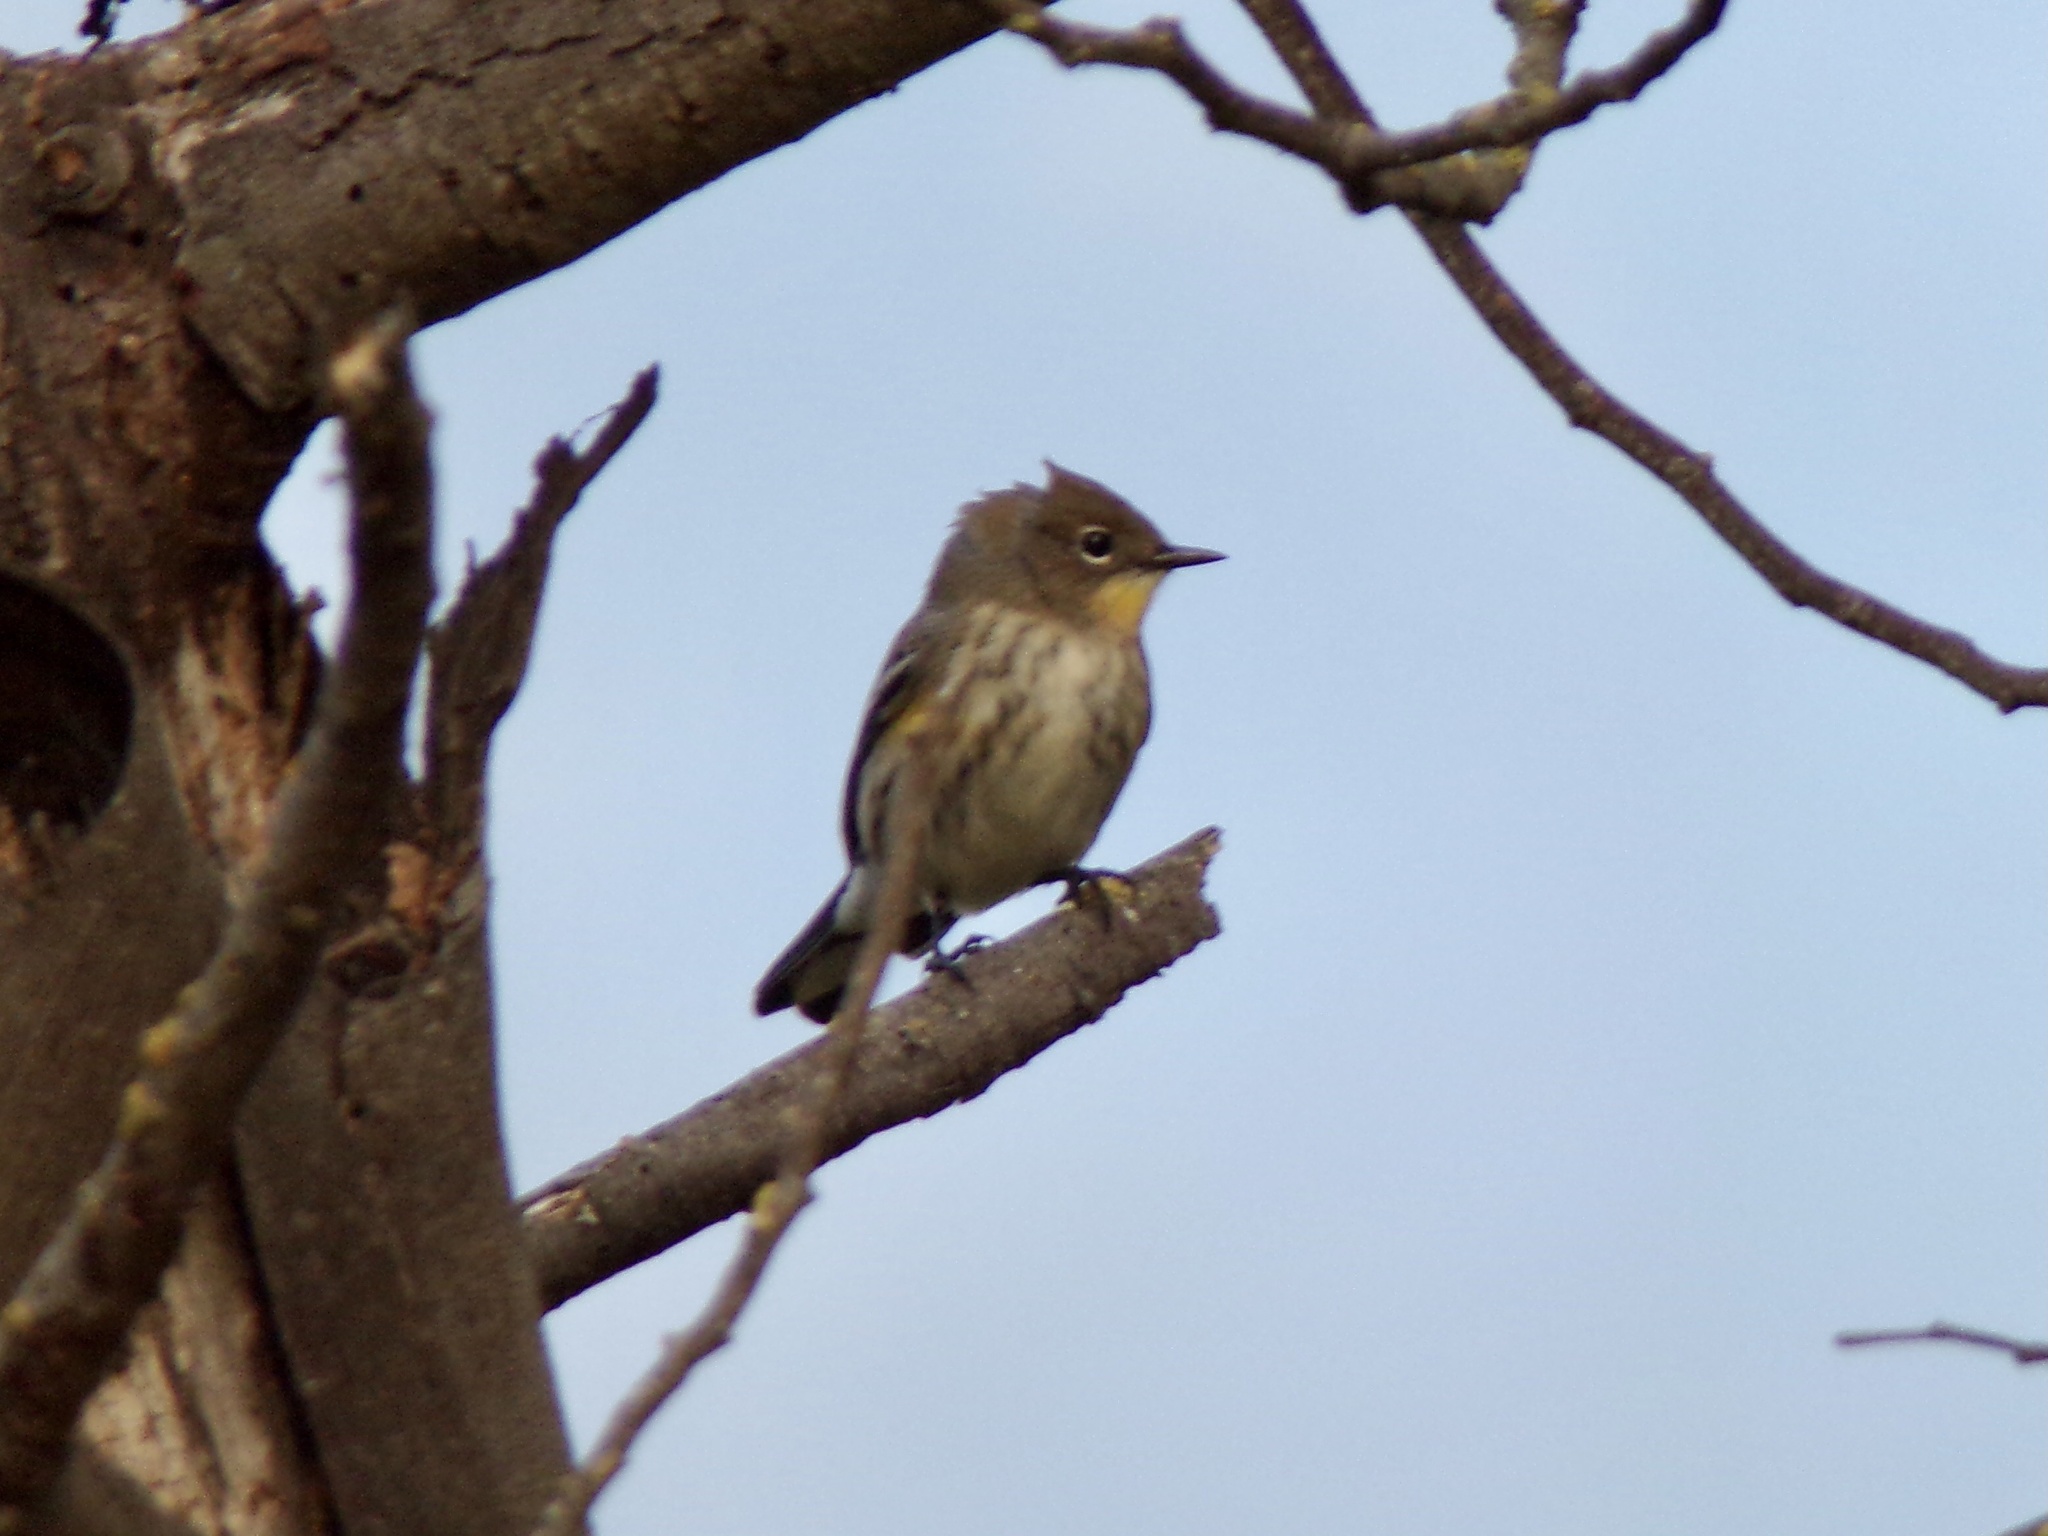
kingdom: Animalia
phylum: Chordata
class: Aves
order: Passeriformes
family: Parulidae
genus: Setophaga
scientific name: Setophaga coronata
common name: Myrtle warbler
